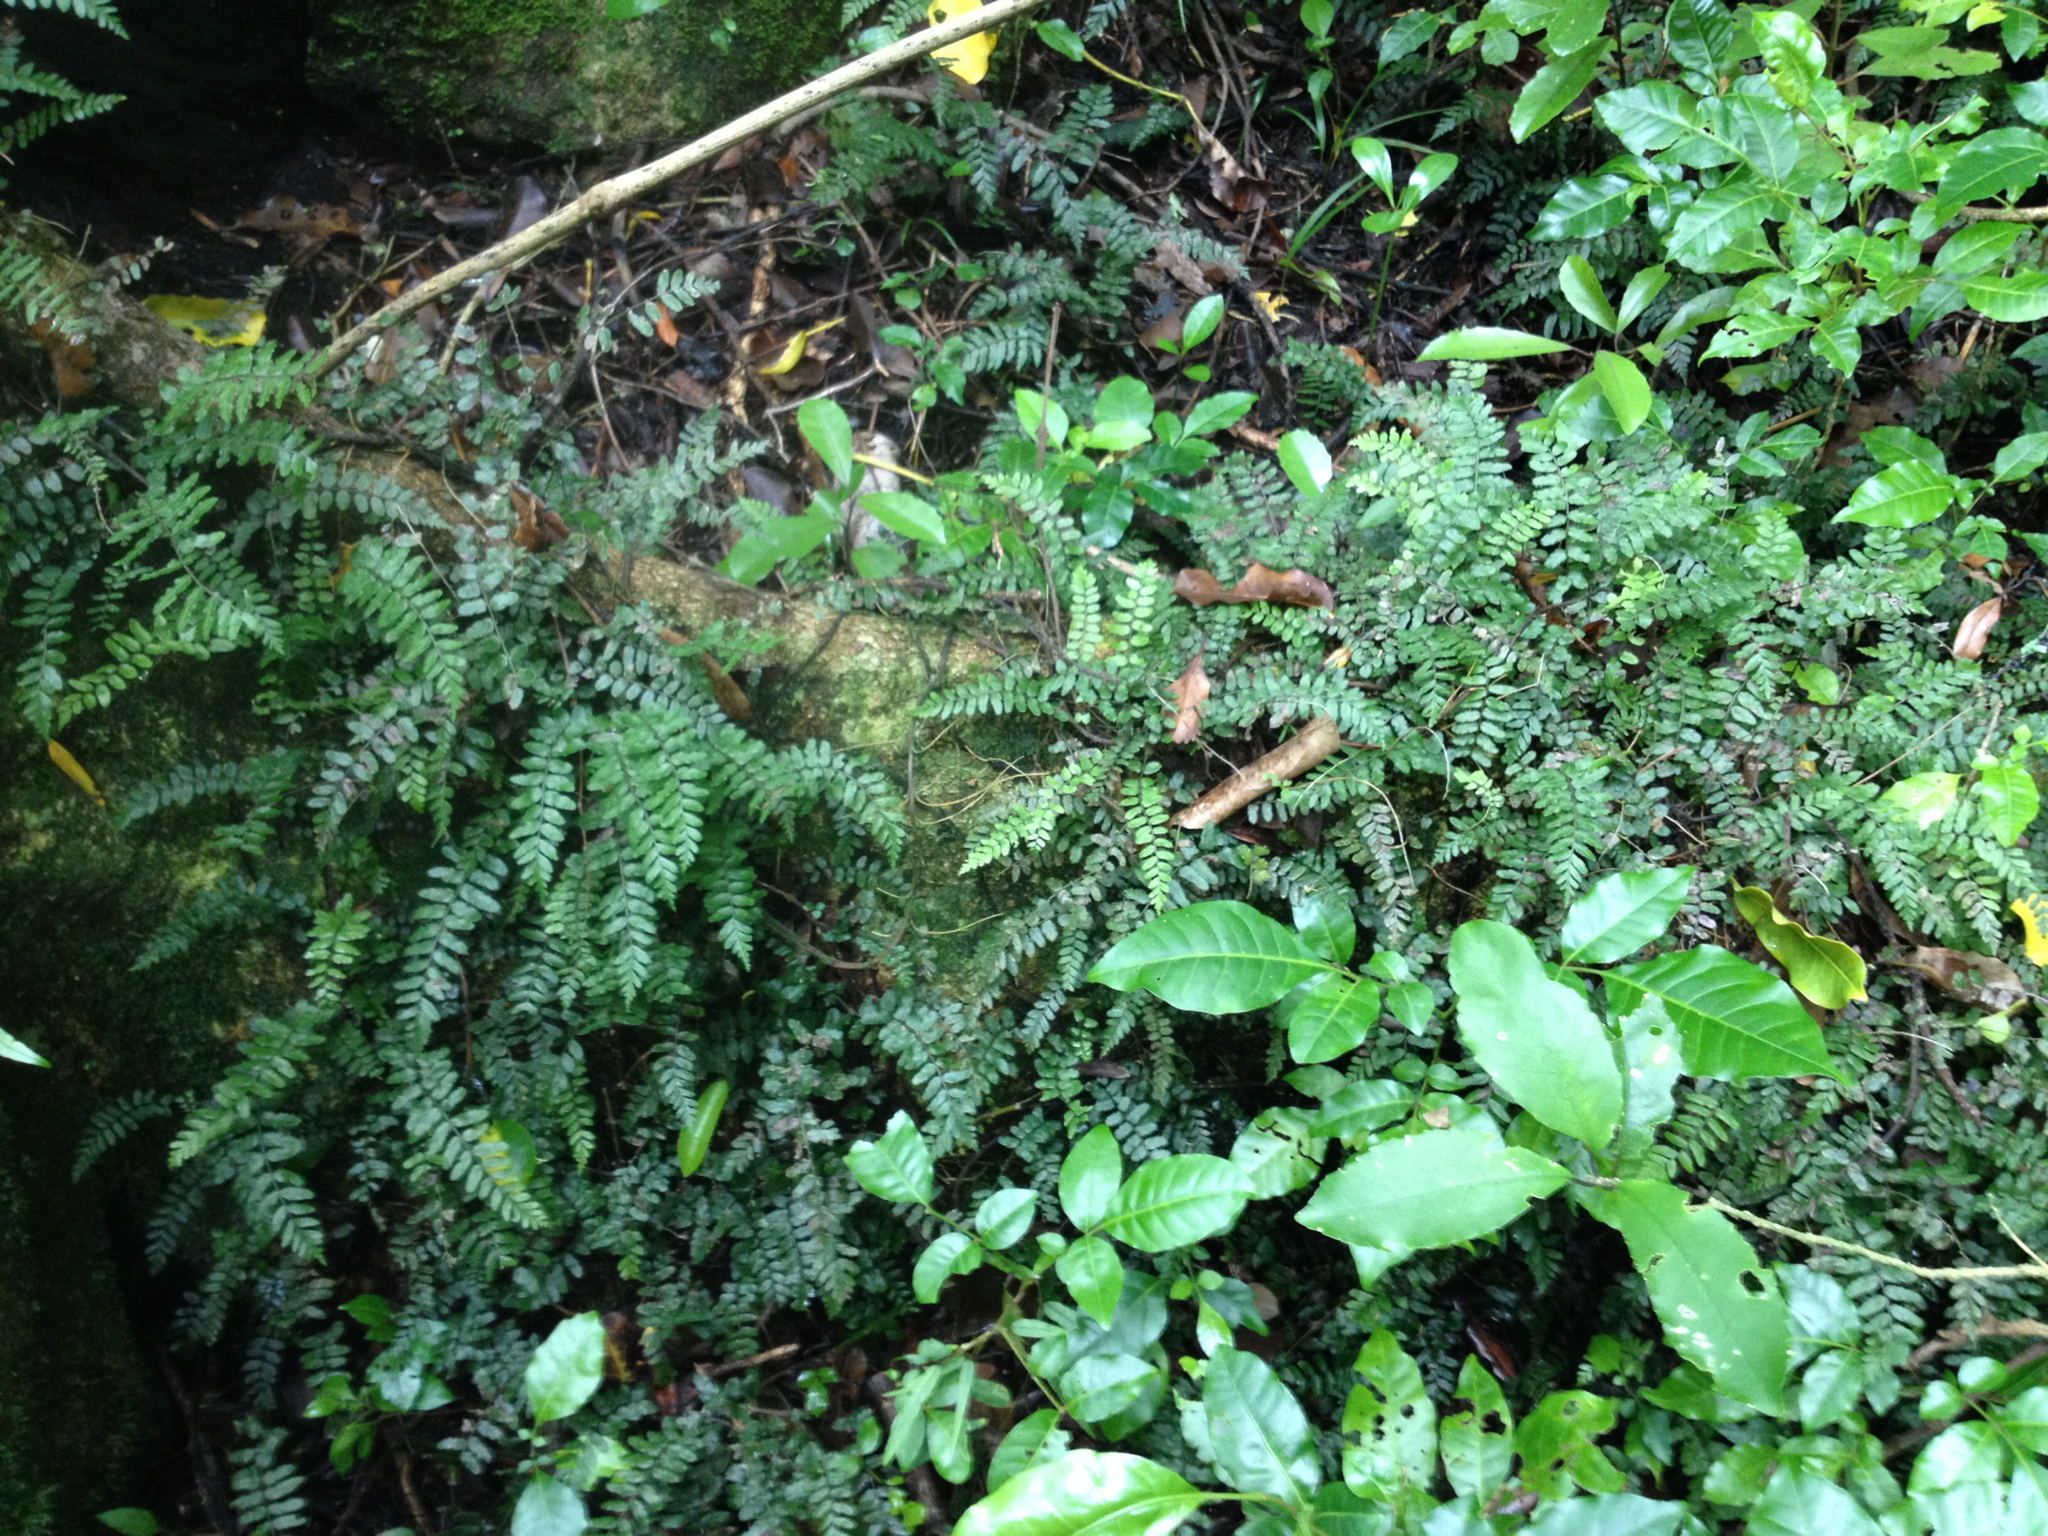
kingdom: Plantae
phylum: Tracheophyta
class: Polypodiopsida
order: Polypodiales
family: Blechnaceae
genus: Icarus
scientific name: Icarus filiformis
